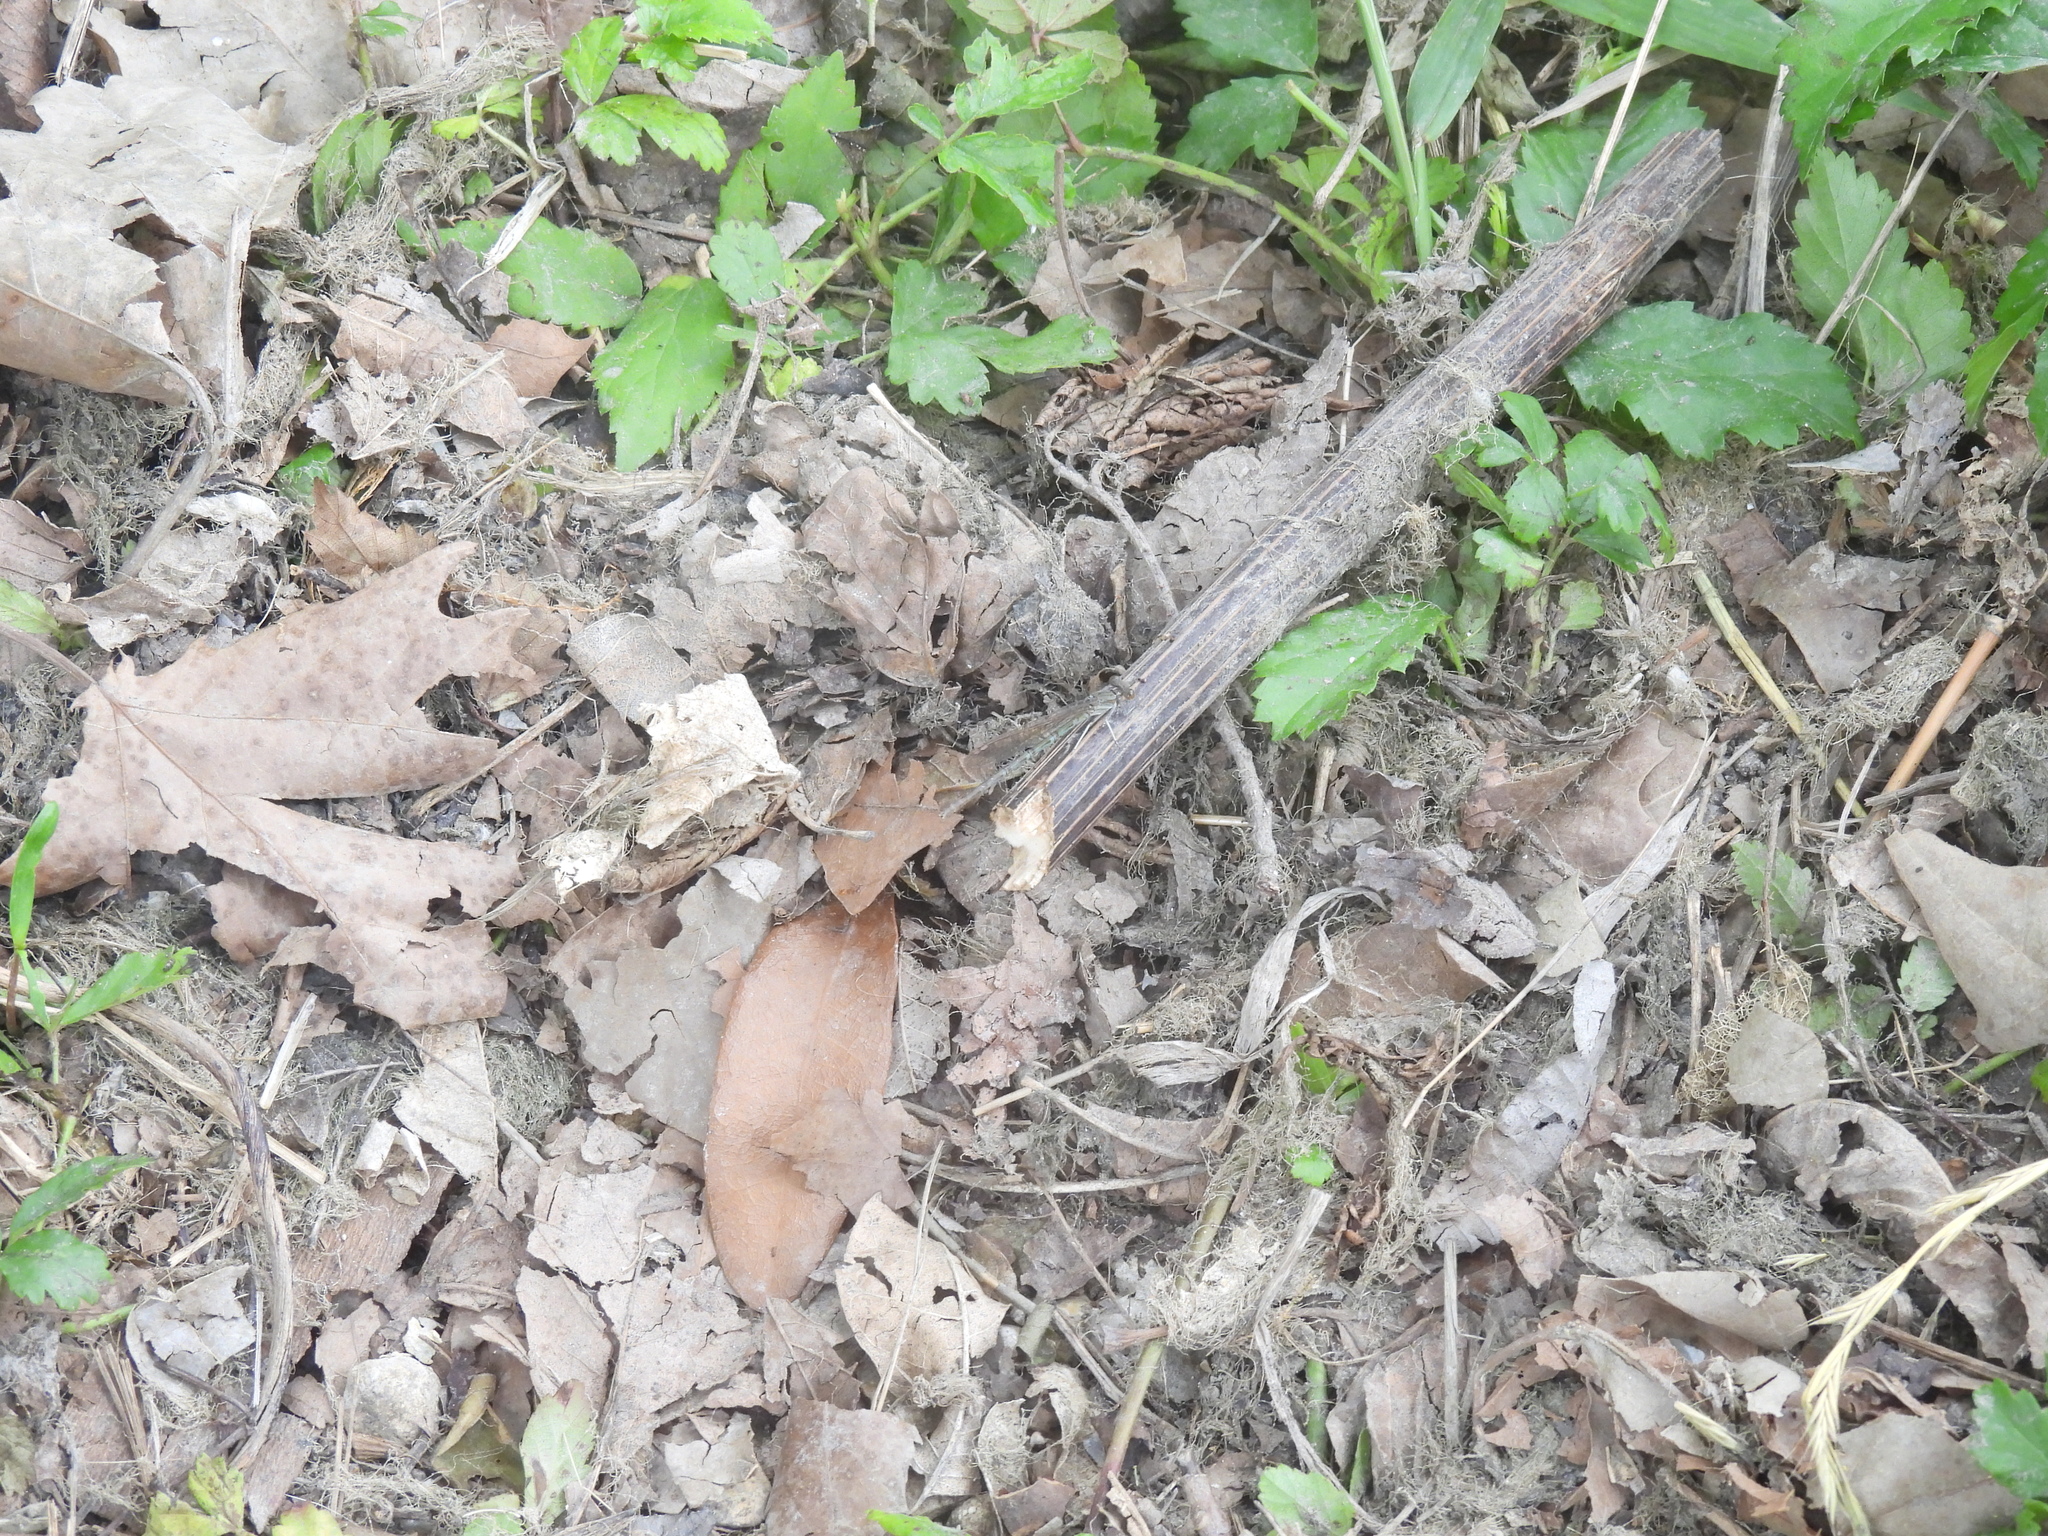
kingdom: Animalia
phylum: Arthropoda
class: Insecta
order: Odonata
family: Coenagrionidae
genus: Argia
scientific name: Argia sedula
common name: Blue-ringed dancer
